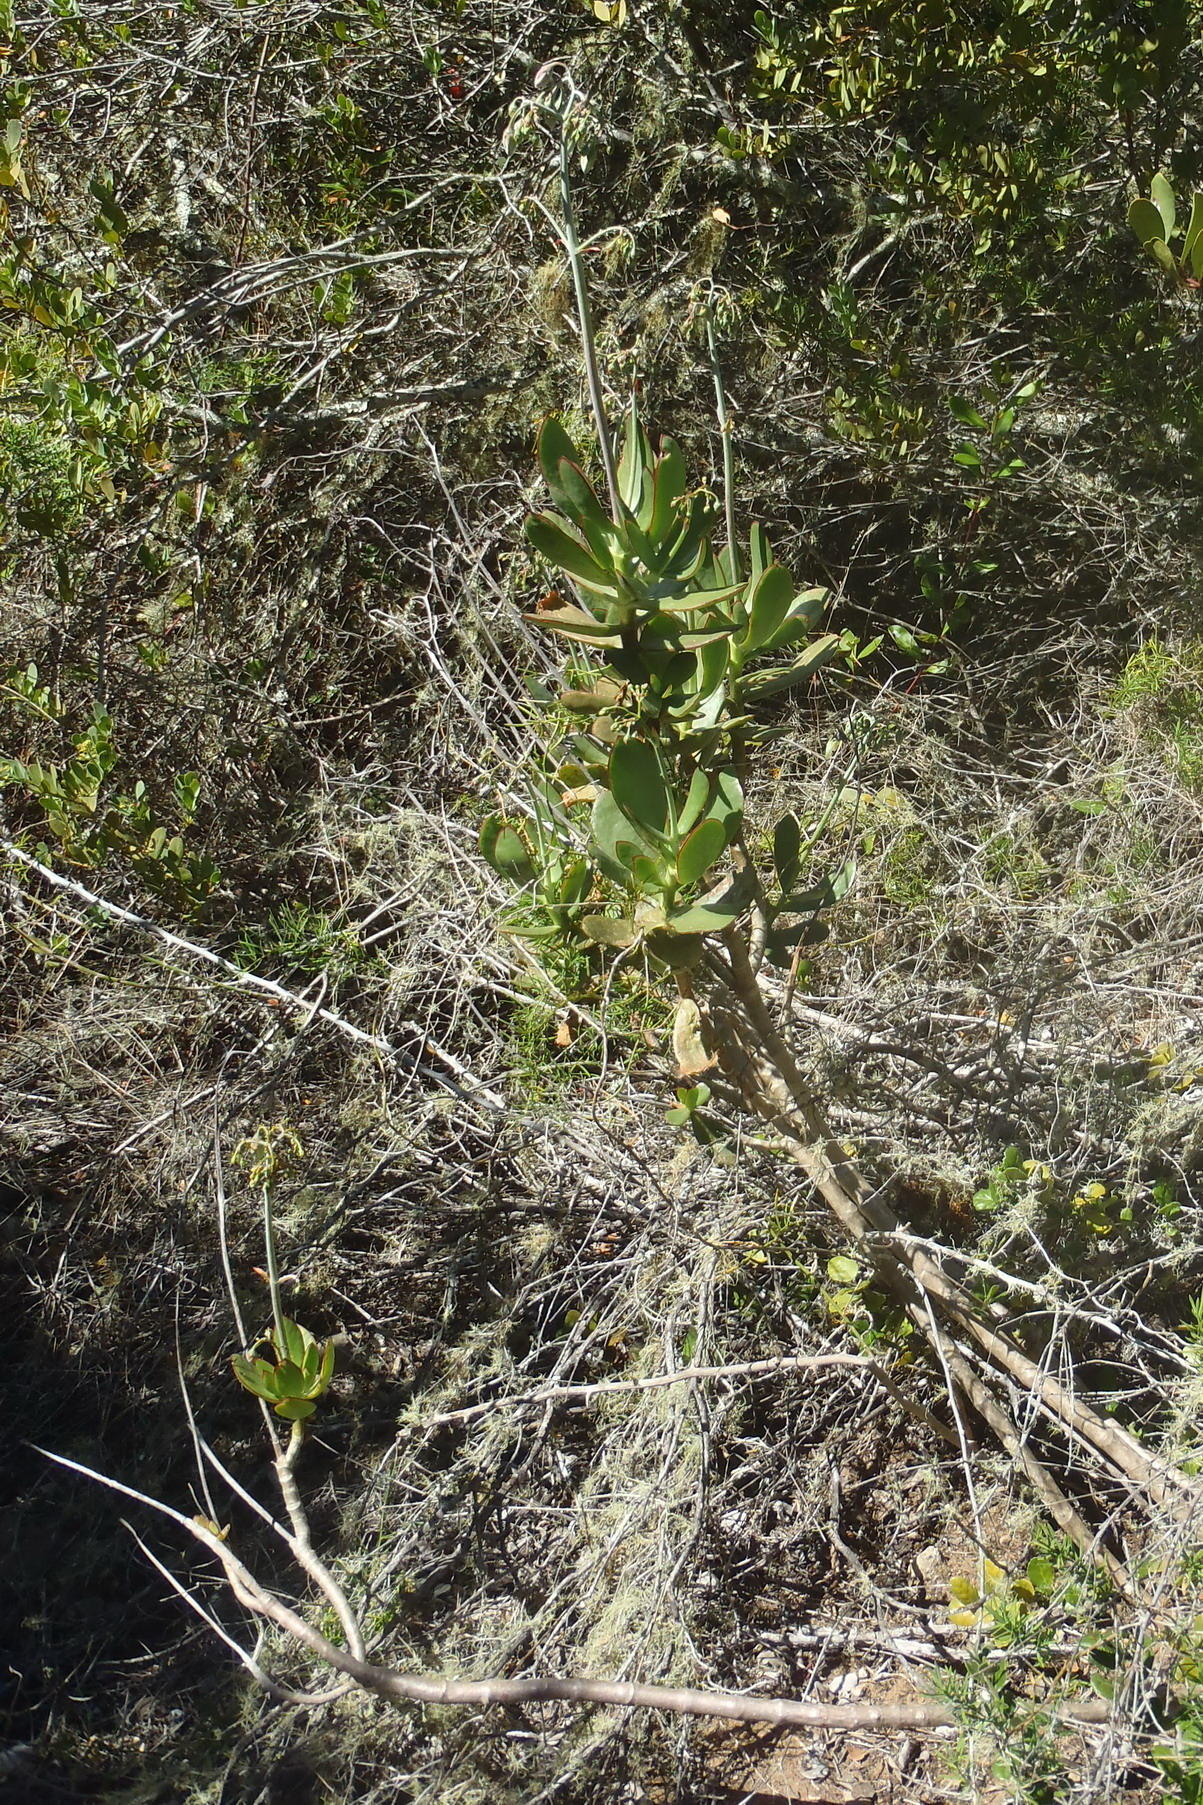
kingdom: Plantae
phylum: Tracheophyta
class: Magnoliopsida
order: Saxifragales
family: Crassulaceae
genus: Cotyledon
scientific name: Cotyledon orbiculata
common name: Pig's ear
